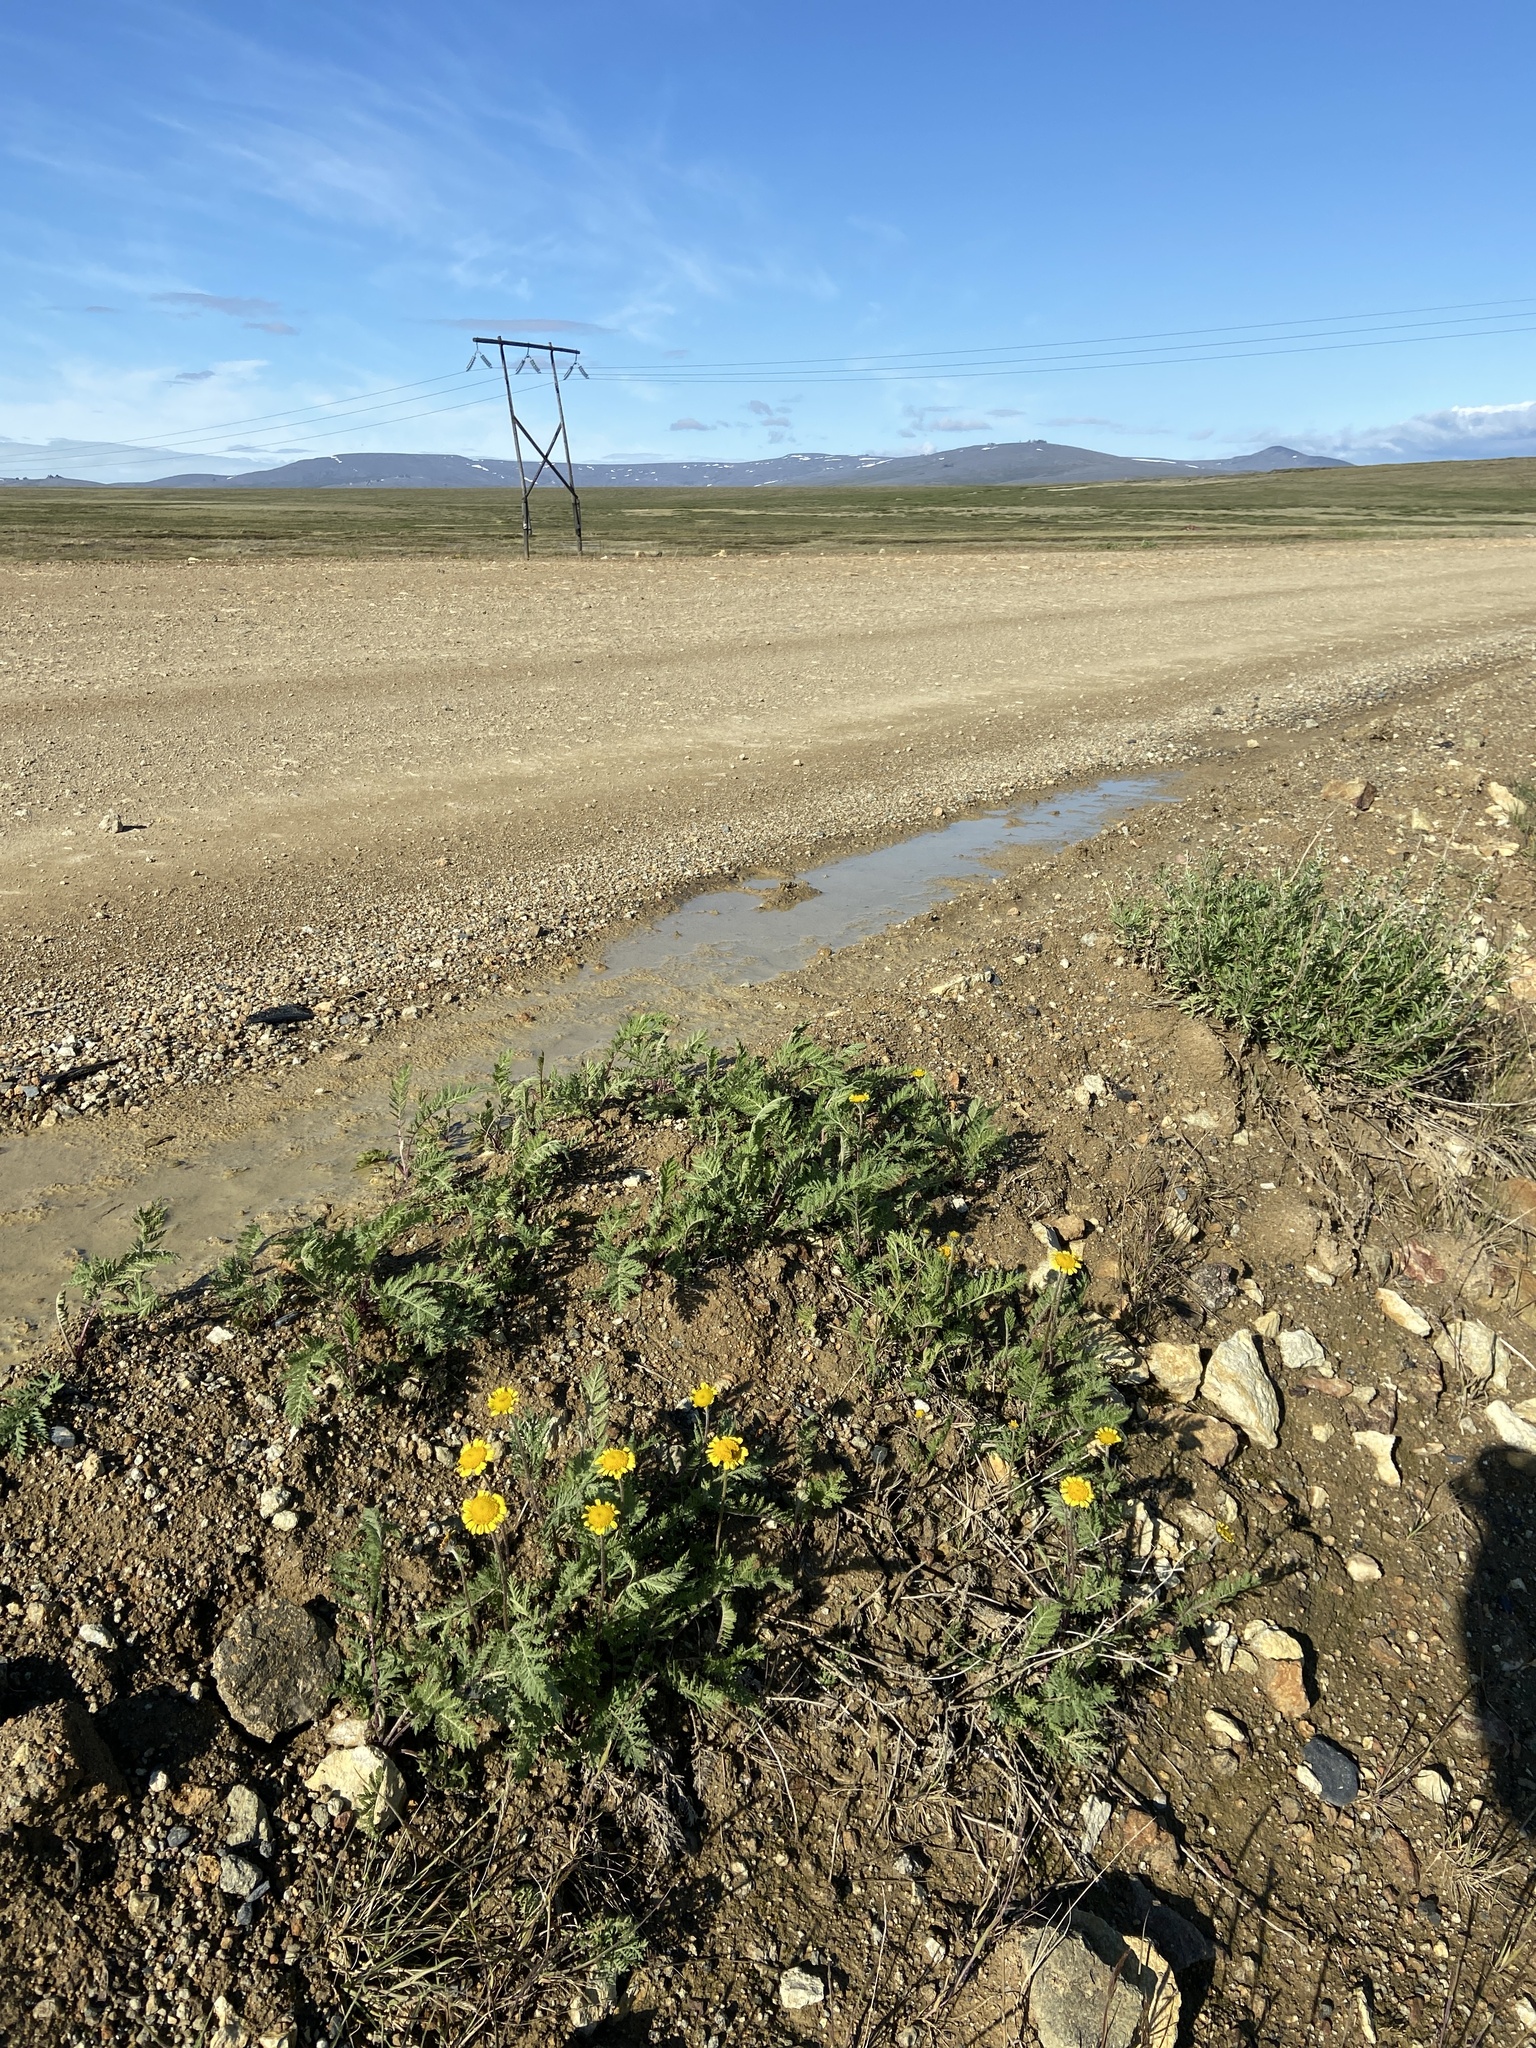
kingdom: Plantae
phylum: Tracheophyta
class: Magnoliopsida
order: Asterales
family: Asteraceae
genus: Tanacetum
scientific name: Tanacetum bipinnatum
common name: Dwarf tansy
